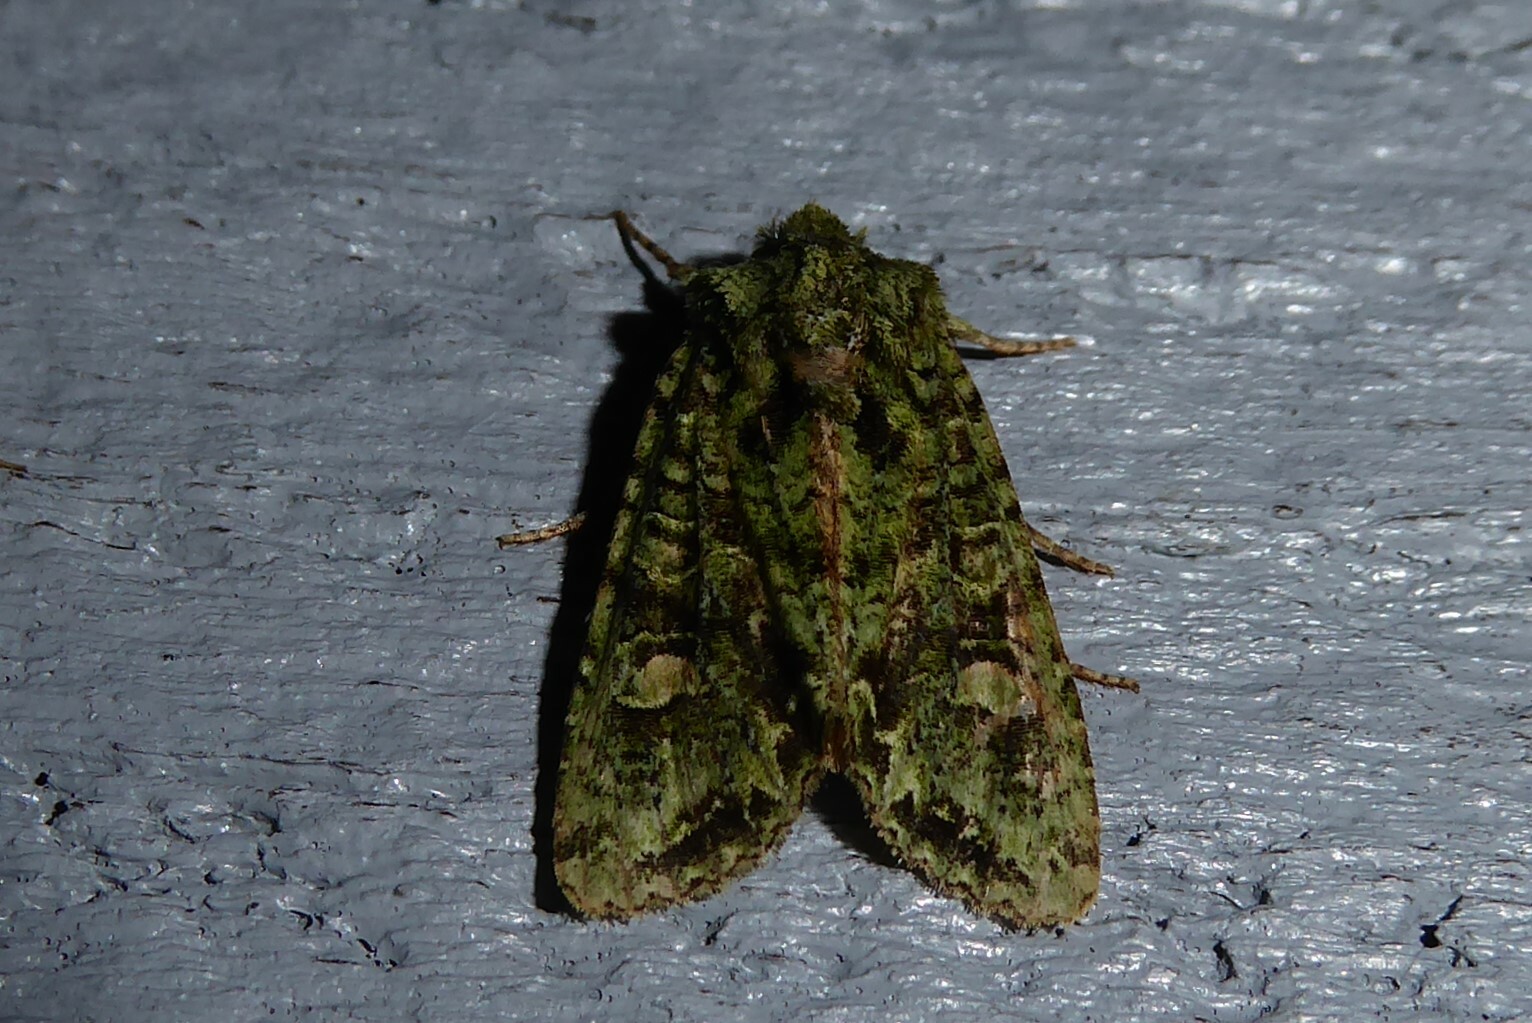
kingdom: Animalia
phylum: Arthropoda
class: Insecta
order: Lepidoptera
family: Noctuidae
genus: Ichneutica
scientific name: Ichneutica
